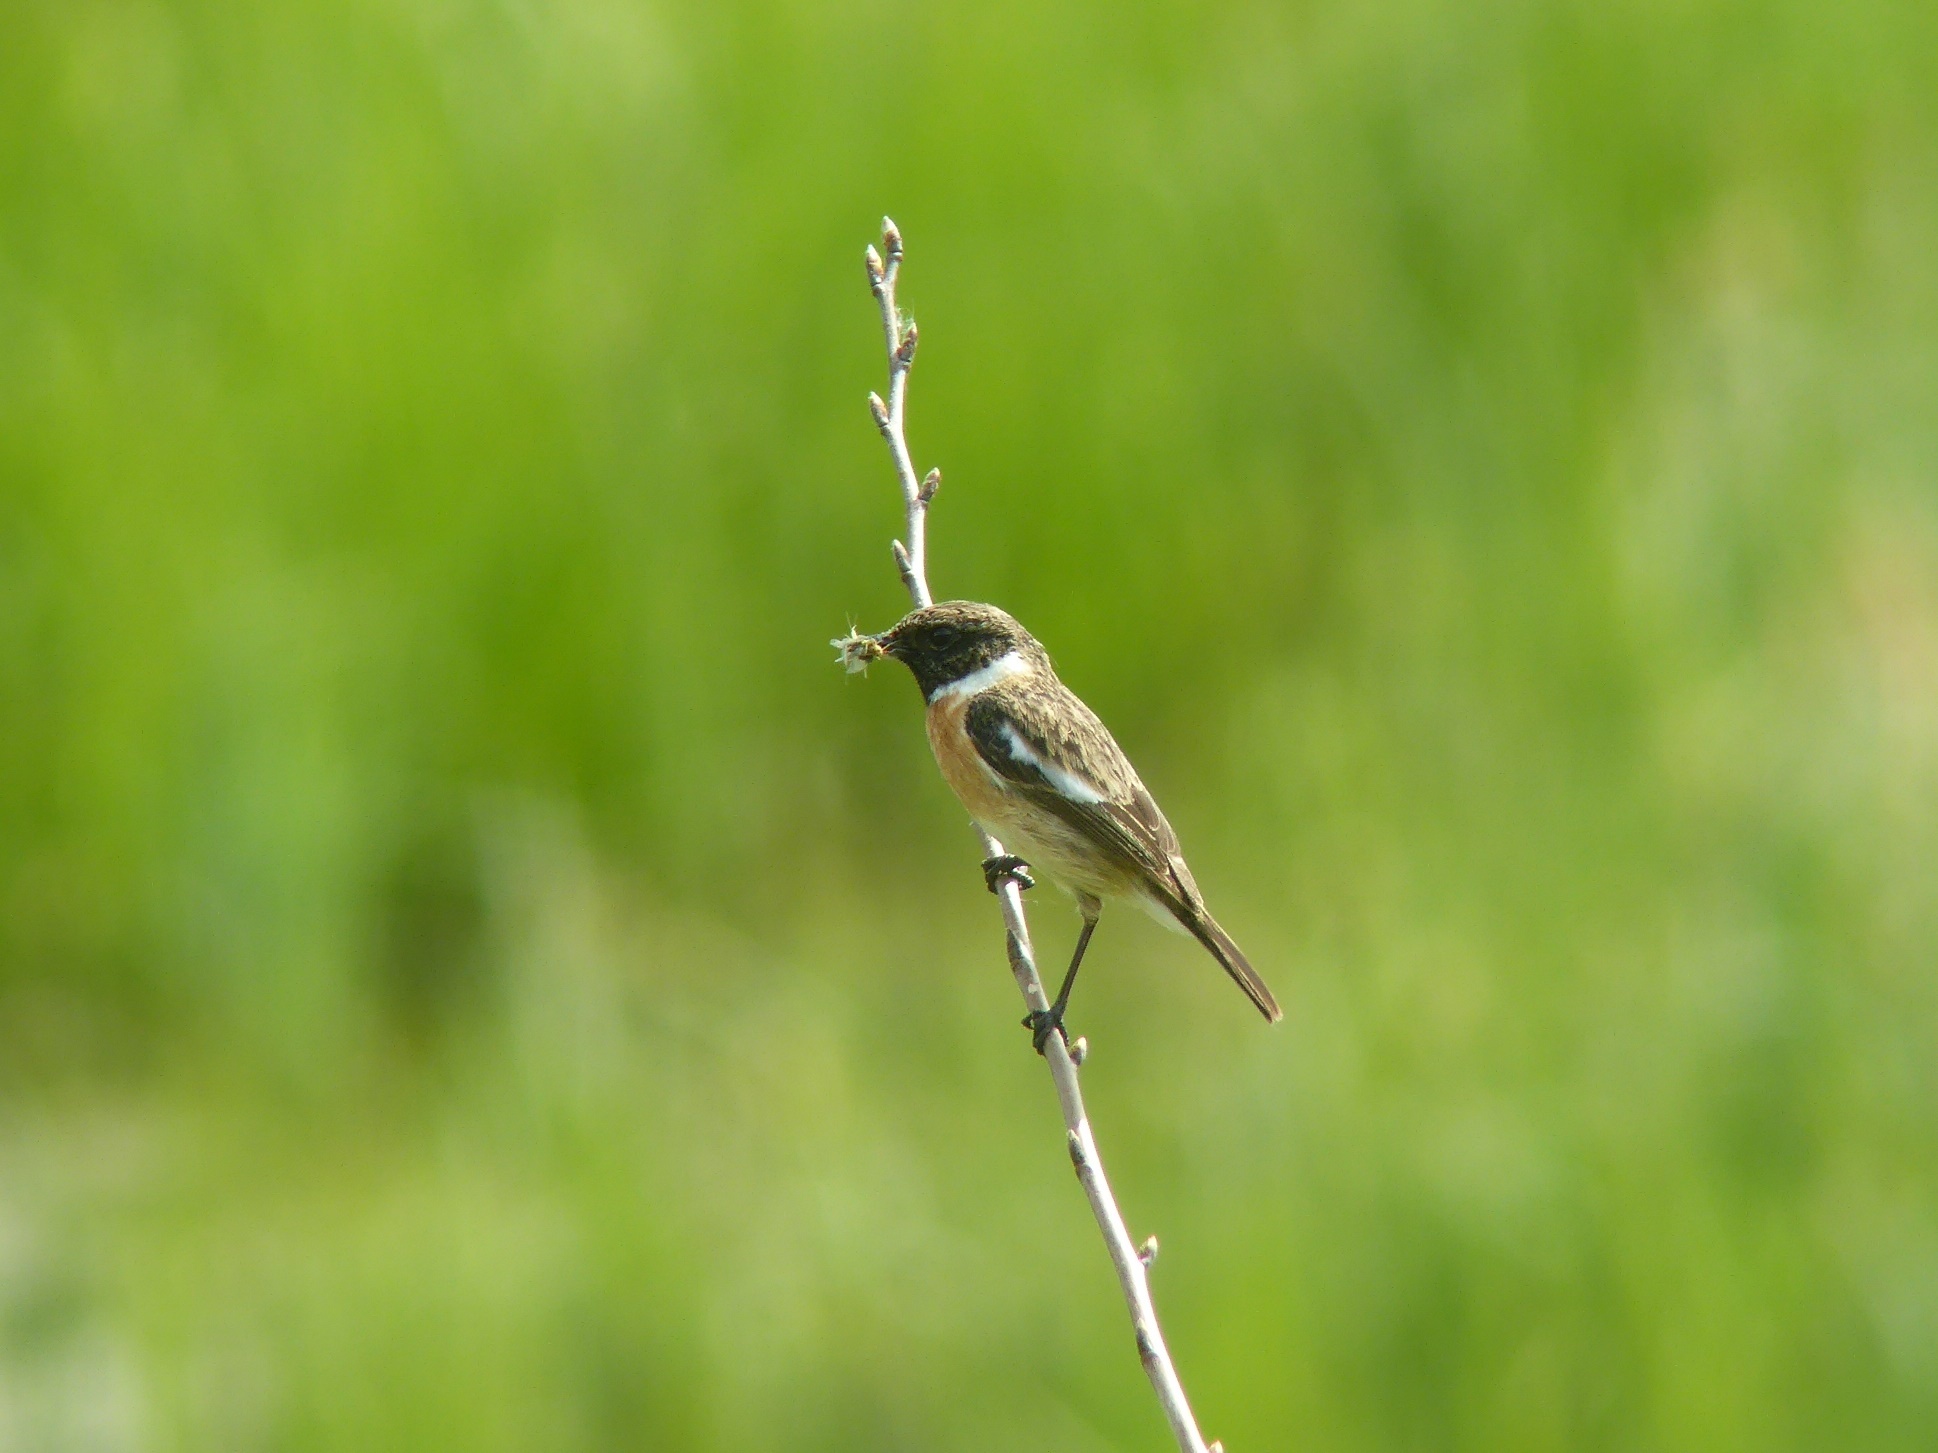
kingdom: Animalia
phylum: Chordata
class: Aves
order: Passeriformes
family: Muscicapidae
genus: Saxicola
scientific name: Saxicola rubicola
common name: European stonechat
